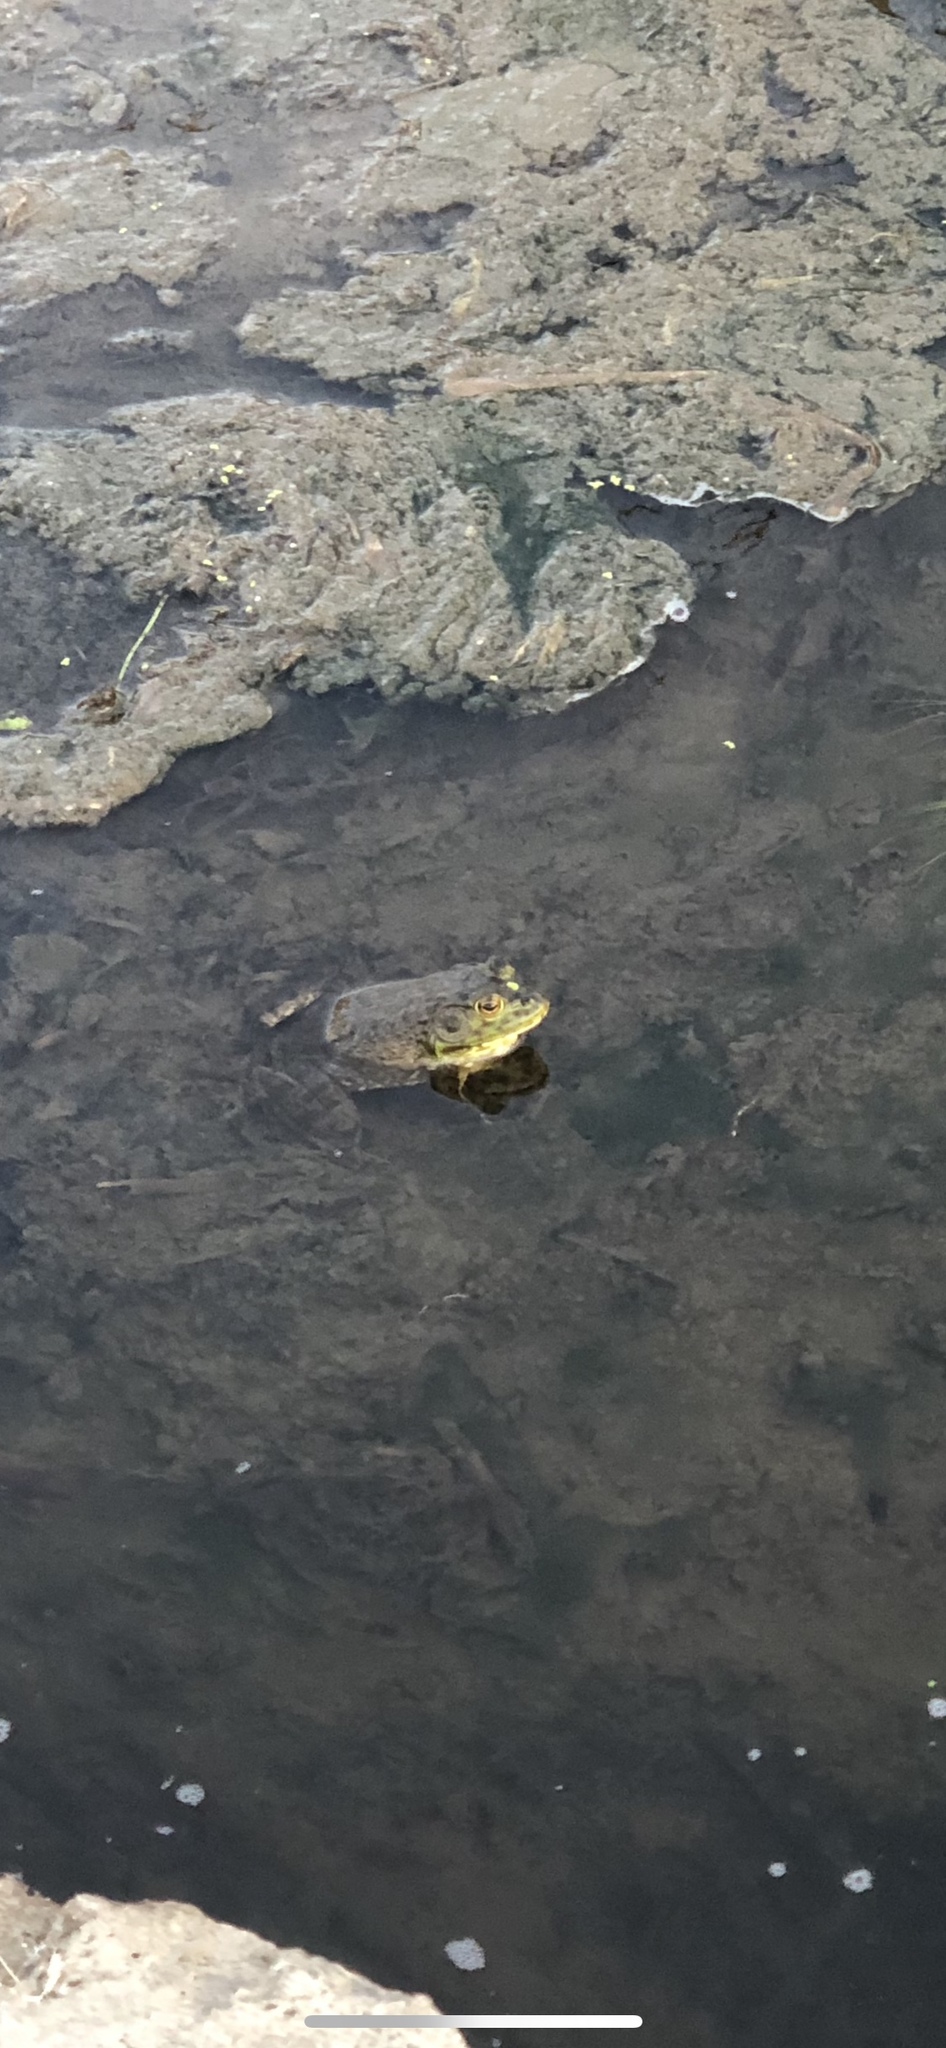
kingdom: Animalia
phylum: Chordata
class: Amphibia
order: Anura
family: Ranidae
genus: Lithobates
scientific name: Lithobates catesbeianus
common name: American bullfrog
